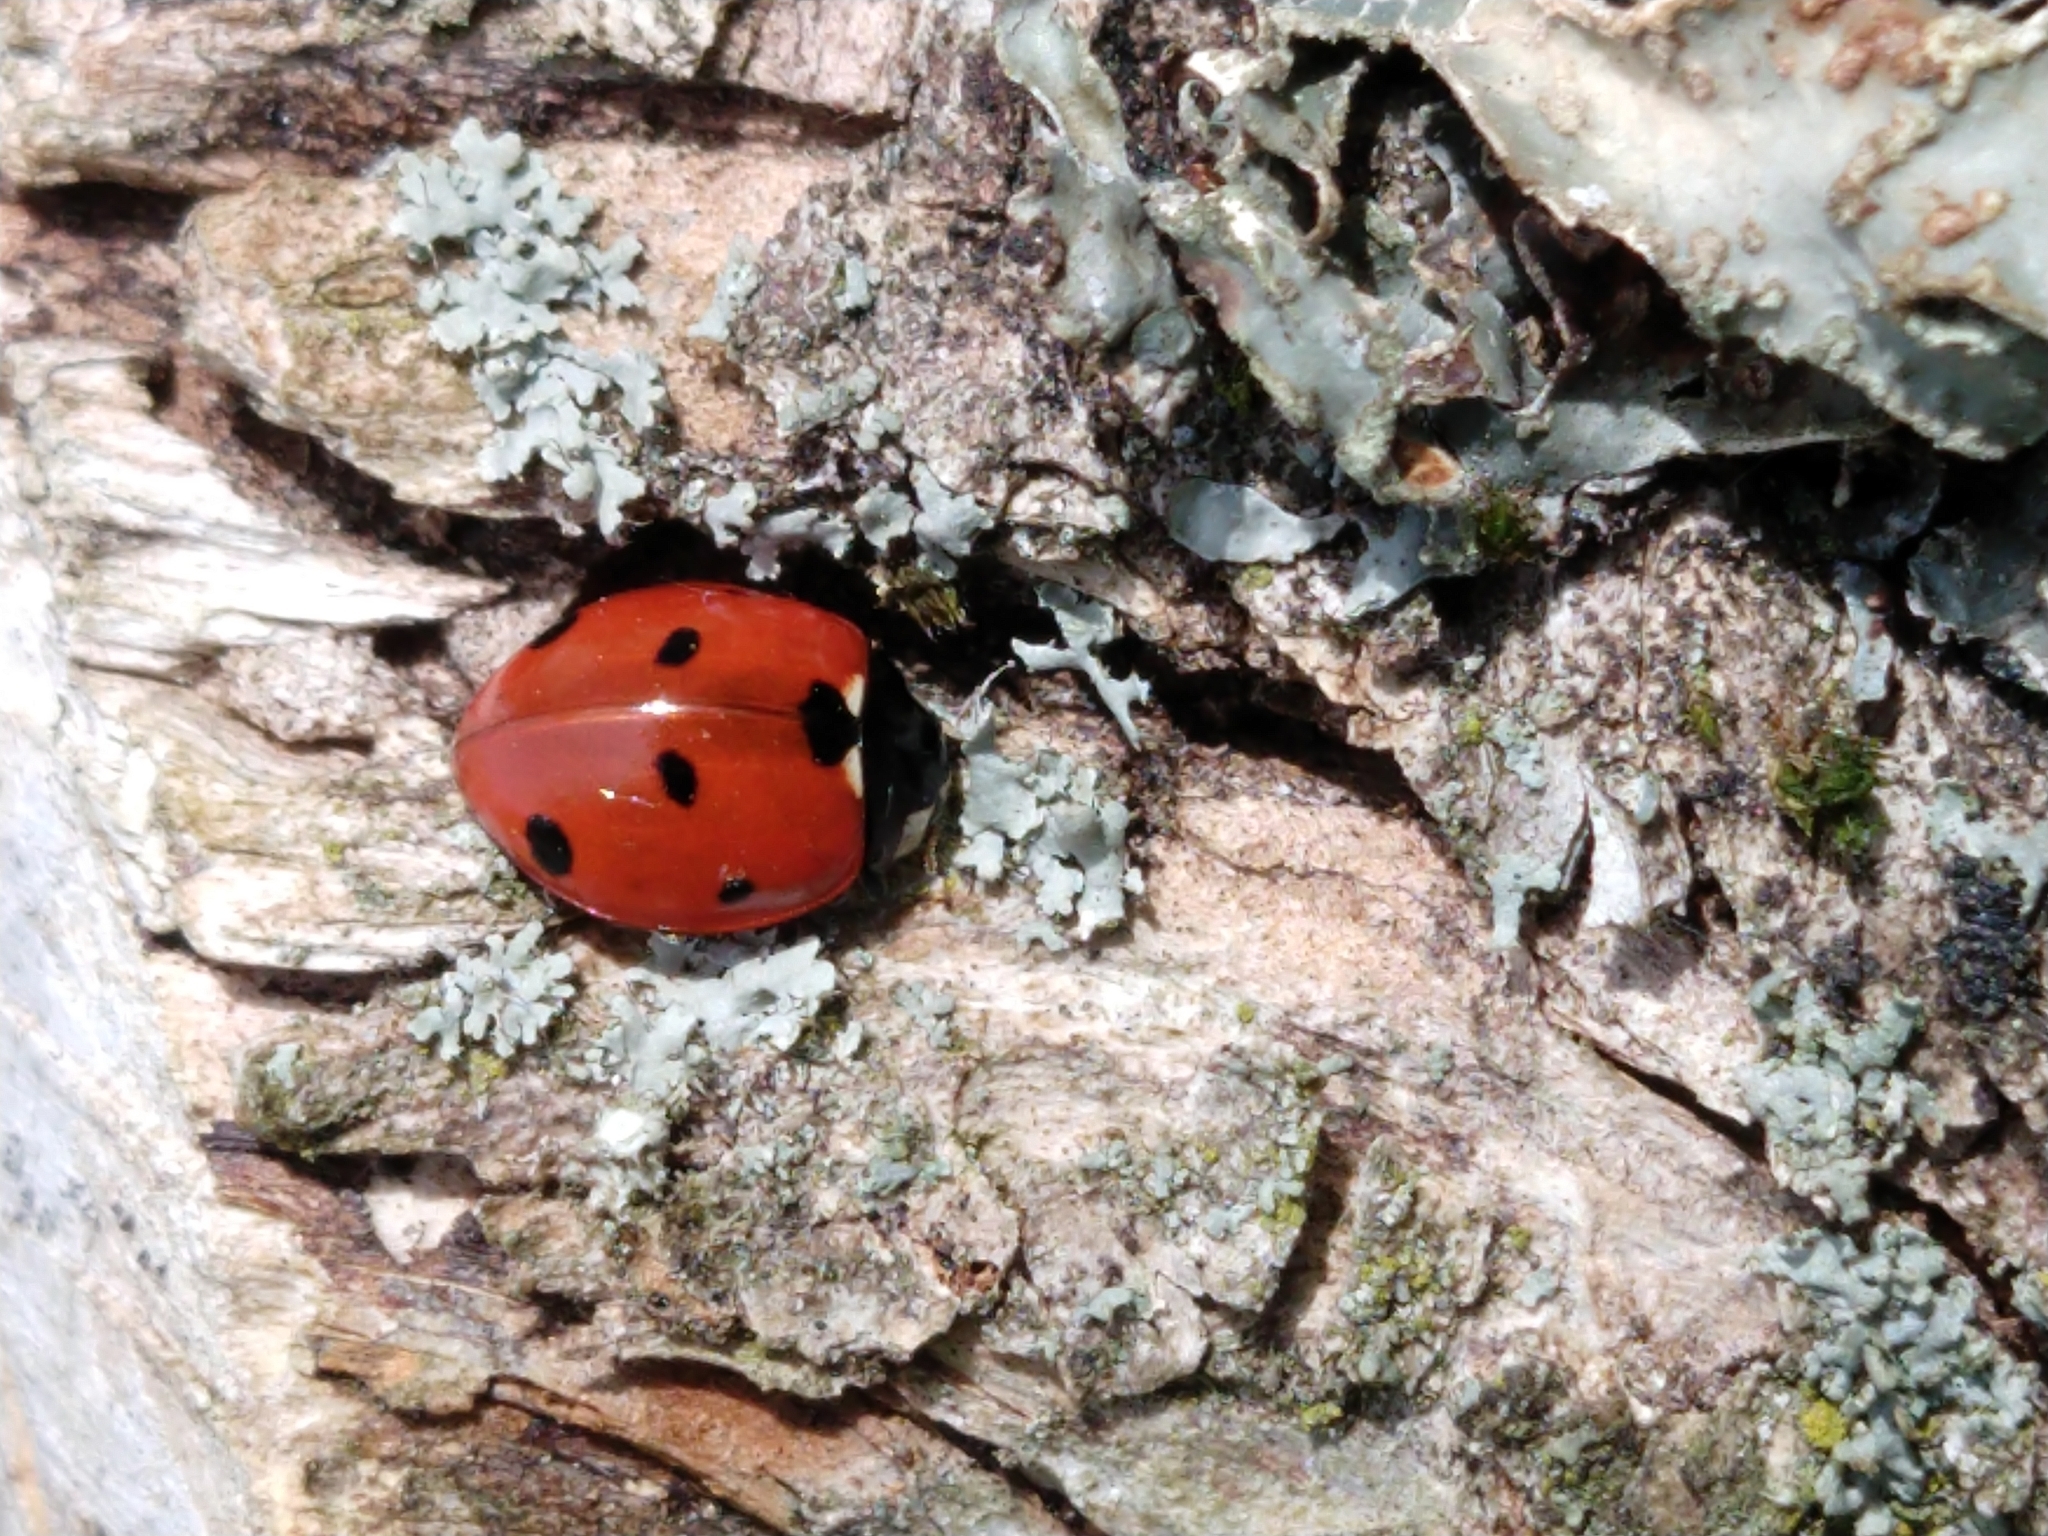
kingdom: Animalia
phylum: Arthropoda
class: Insecta
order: Coleoptera
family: Coccinellidae
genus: Coccinella
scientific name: Coccinella septempunctata
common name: Sevenspotted lady beetle
